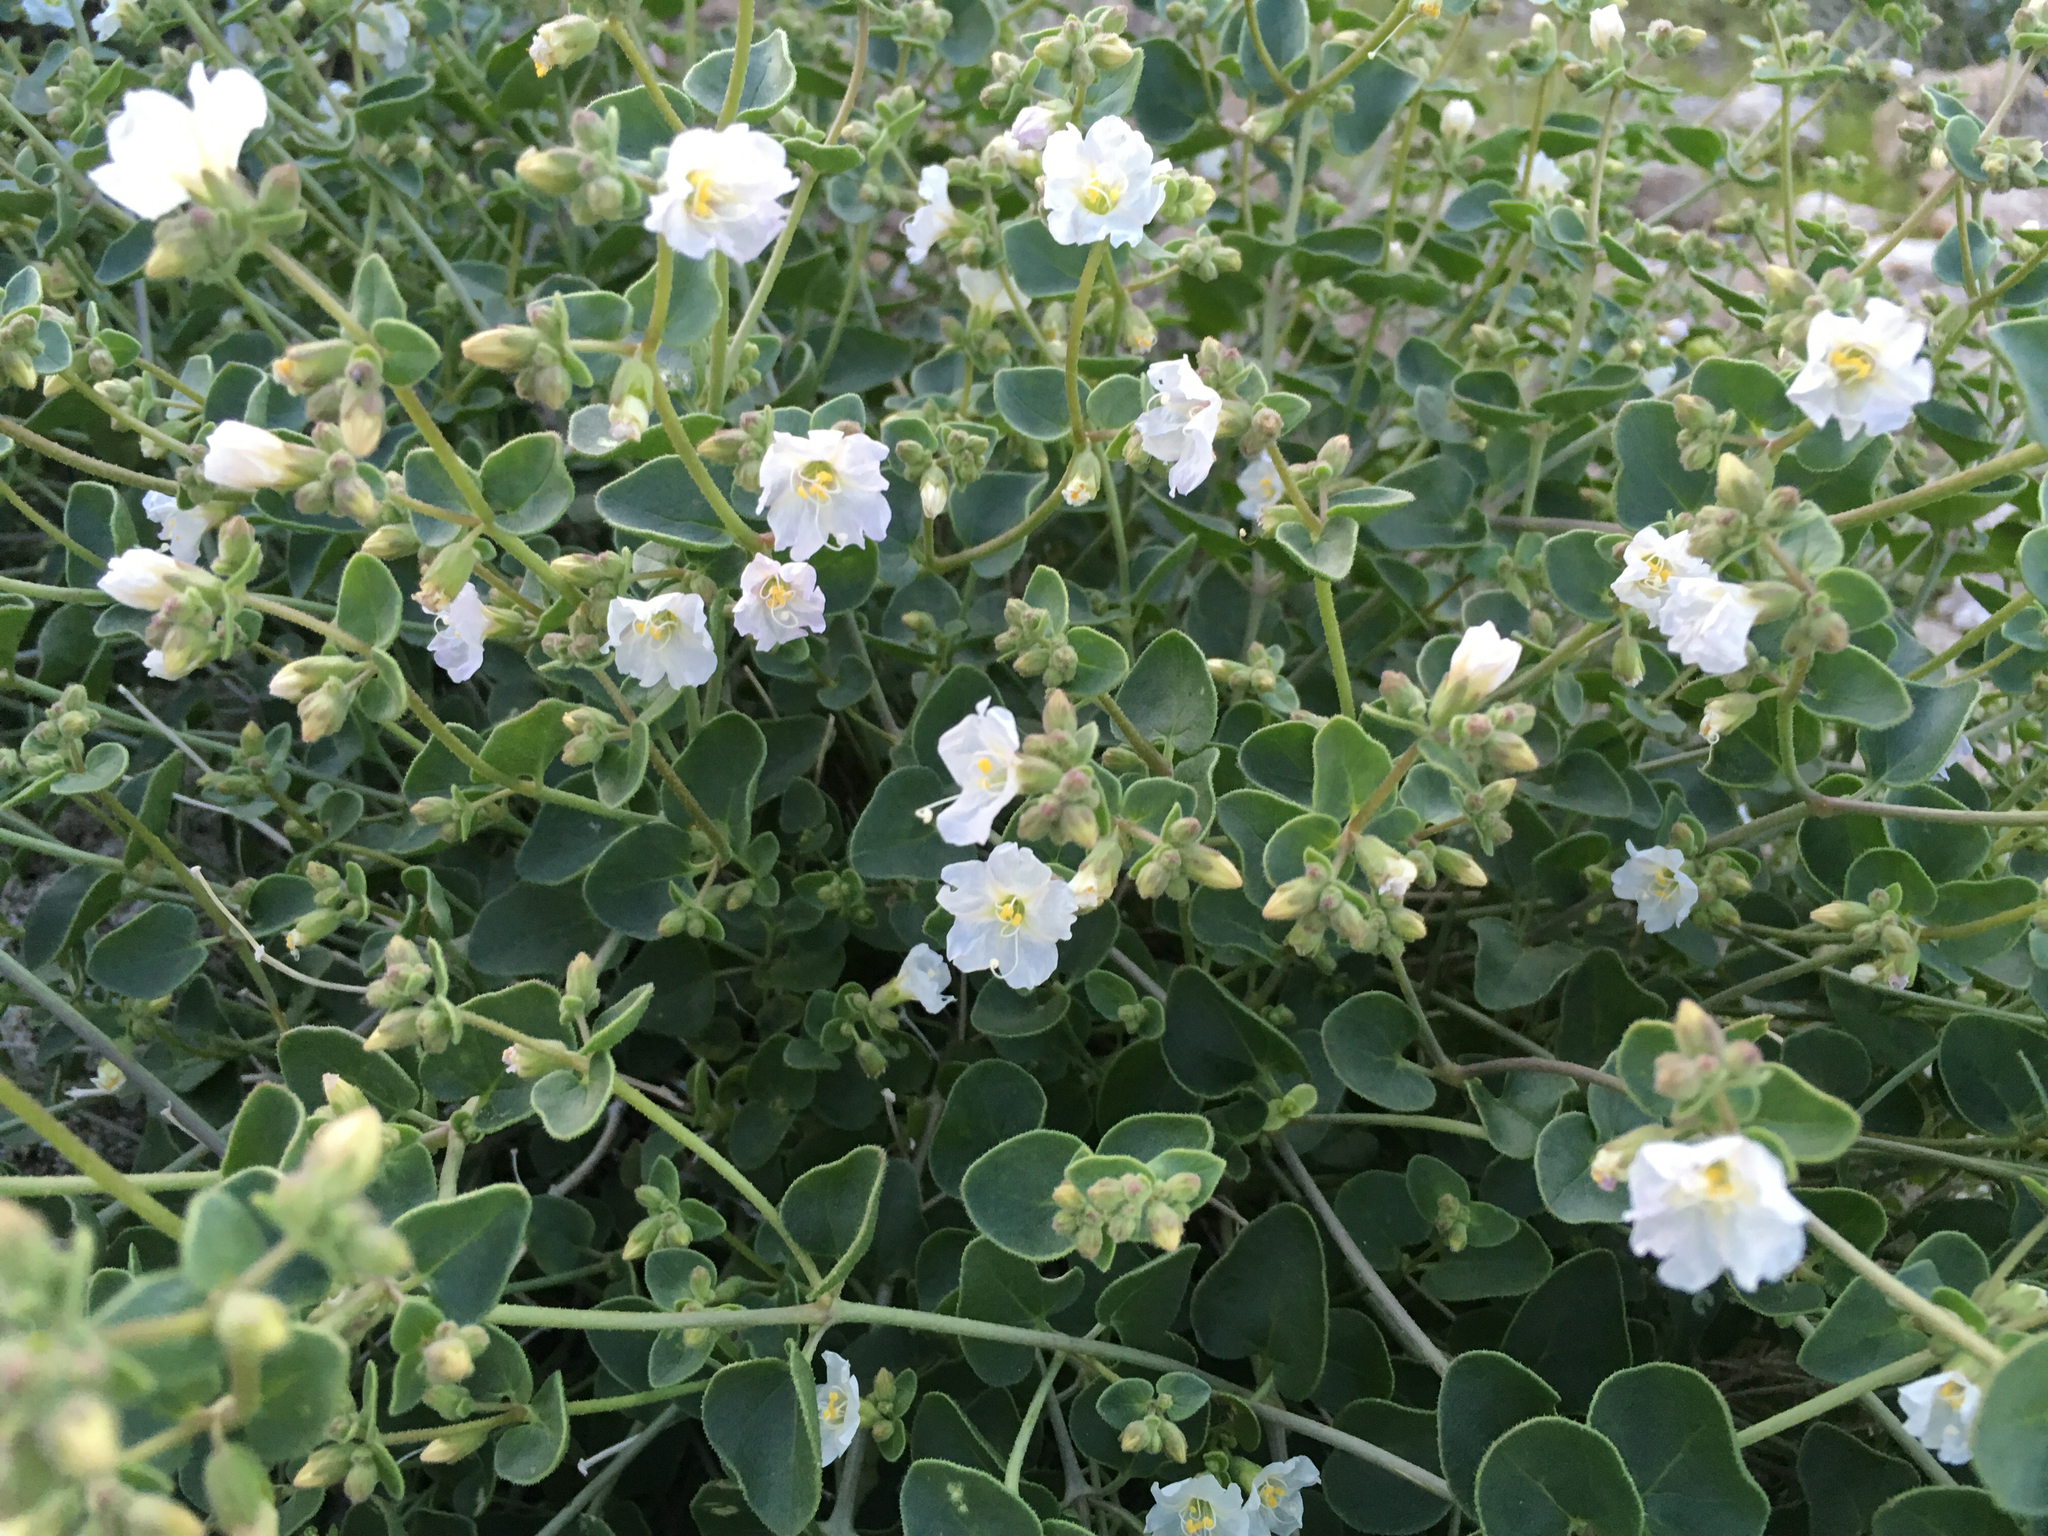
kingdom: Plantae
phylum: Tracheophyta
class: Magnoliopsida
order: Caryophyllales
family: Nyctaginaceae
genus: Mirabilis
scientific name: Mirabilis laevis
